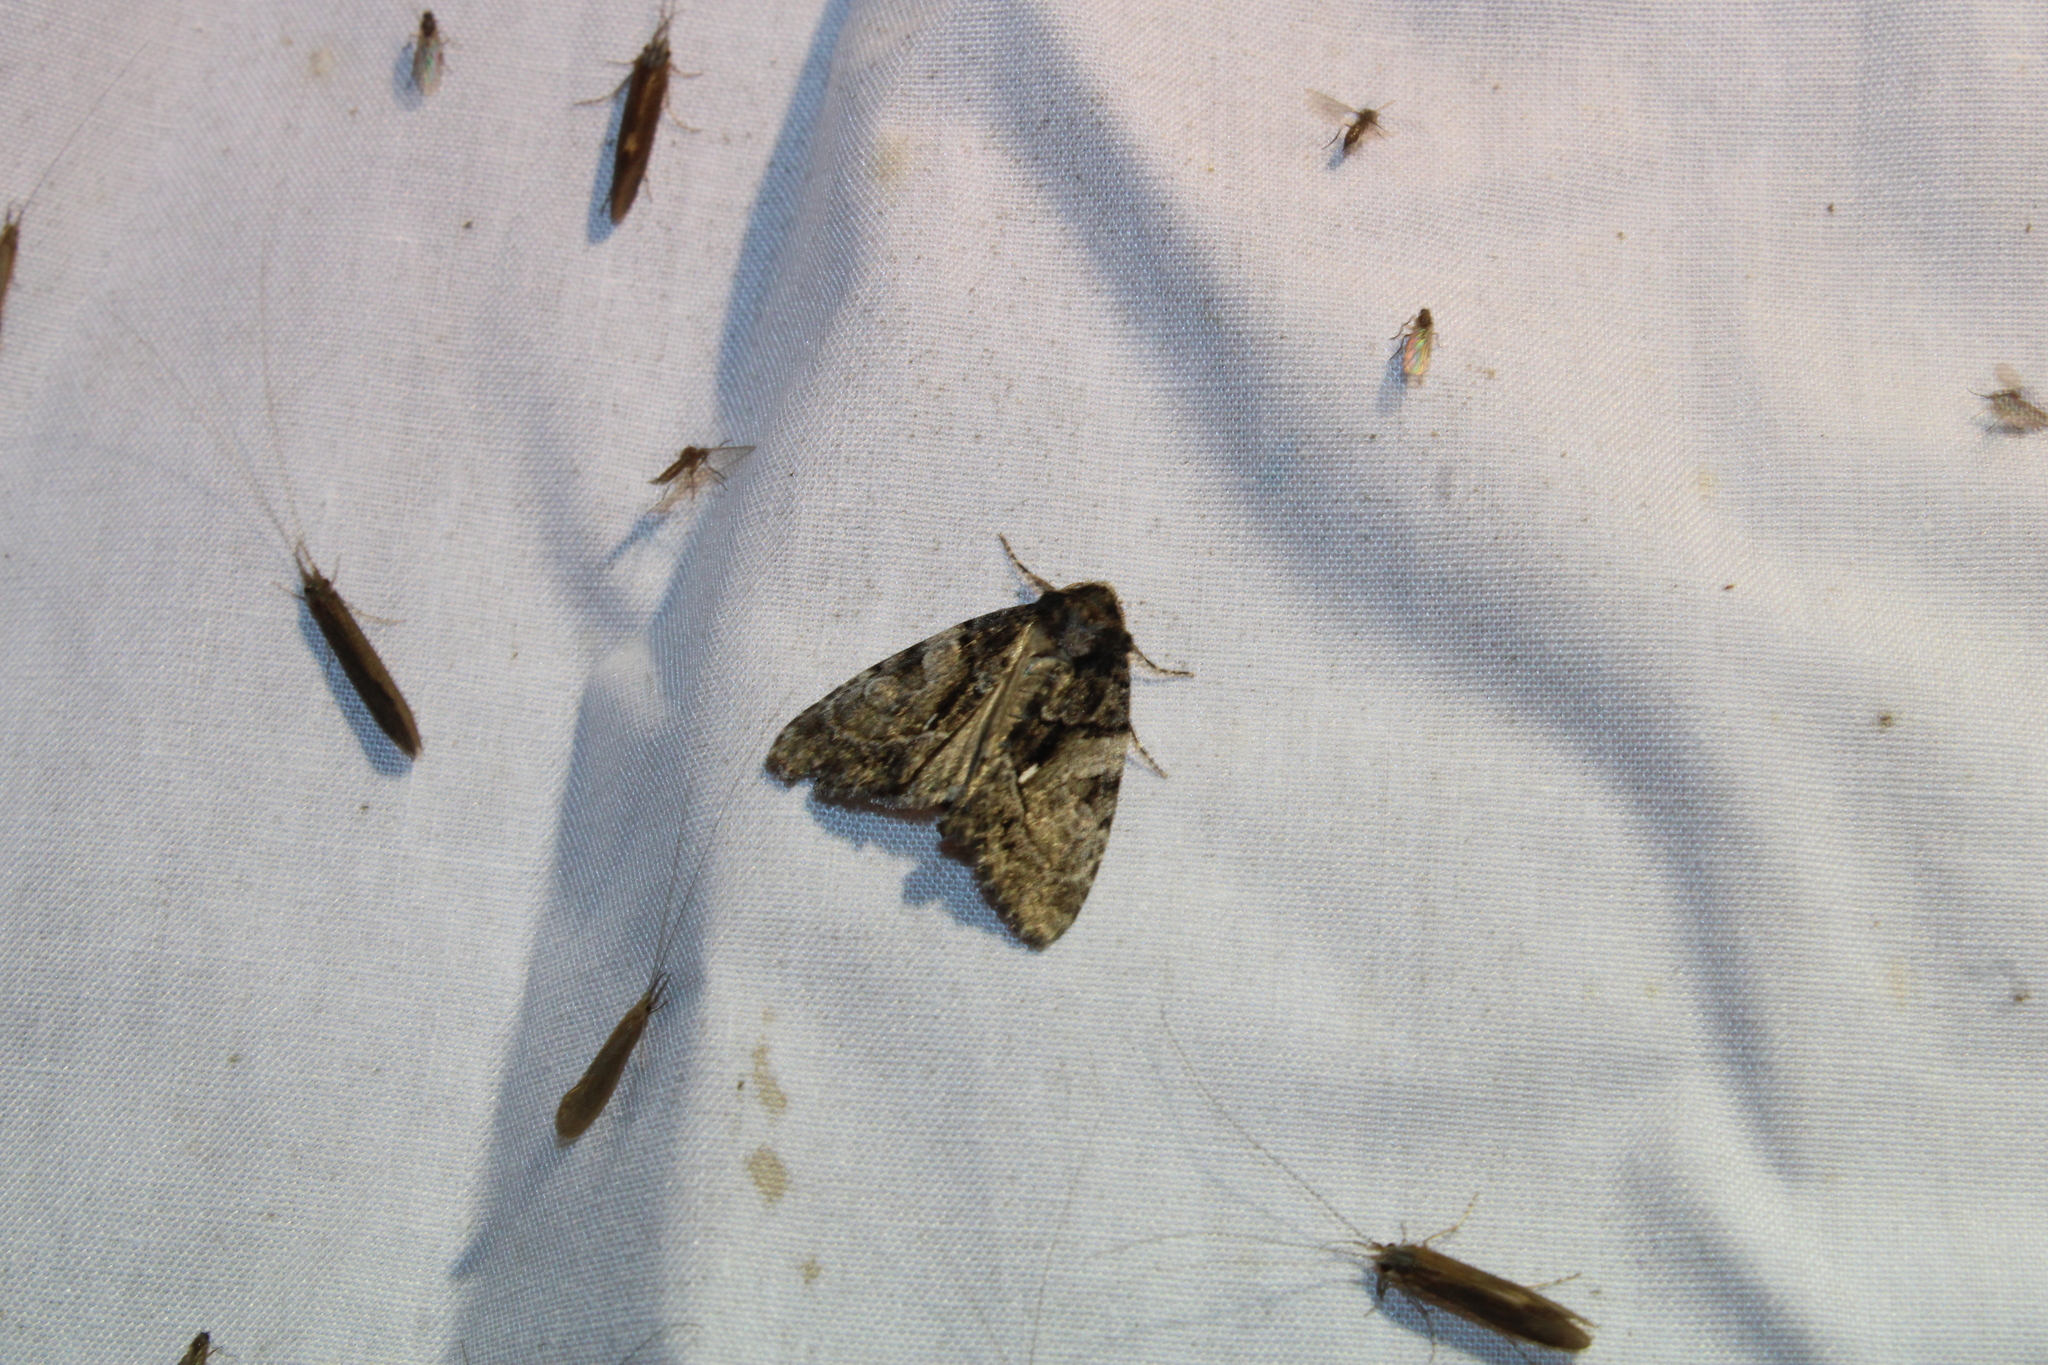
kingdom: Animalia
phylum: Arthropoda
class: Insecta
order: Lepidoptera
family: Noctuidae
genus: Chytonix
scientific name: Chytonix palliatricula
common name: Cloaked marvel
